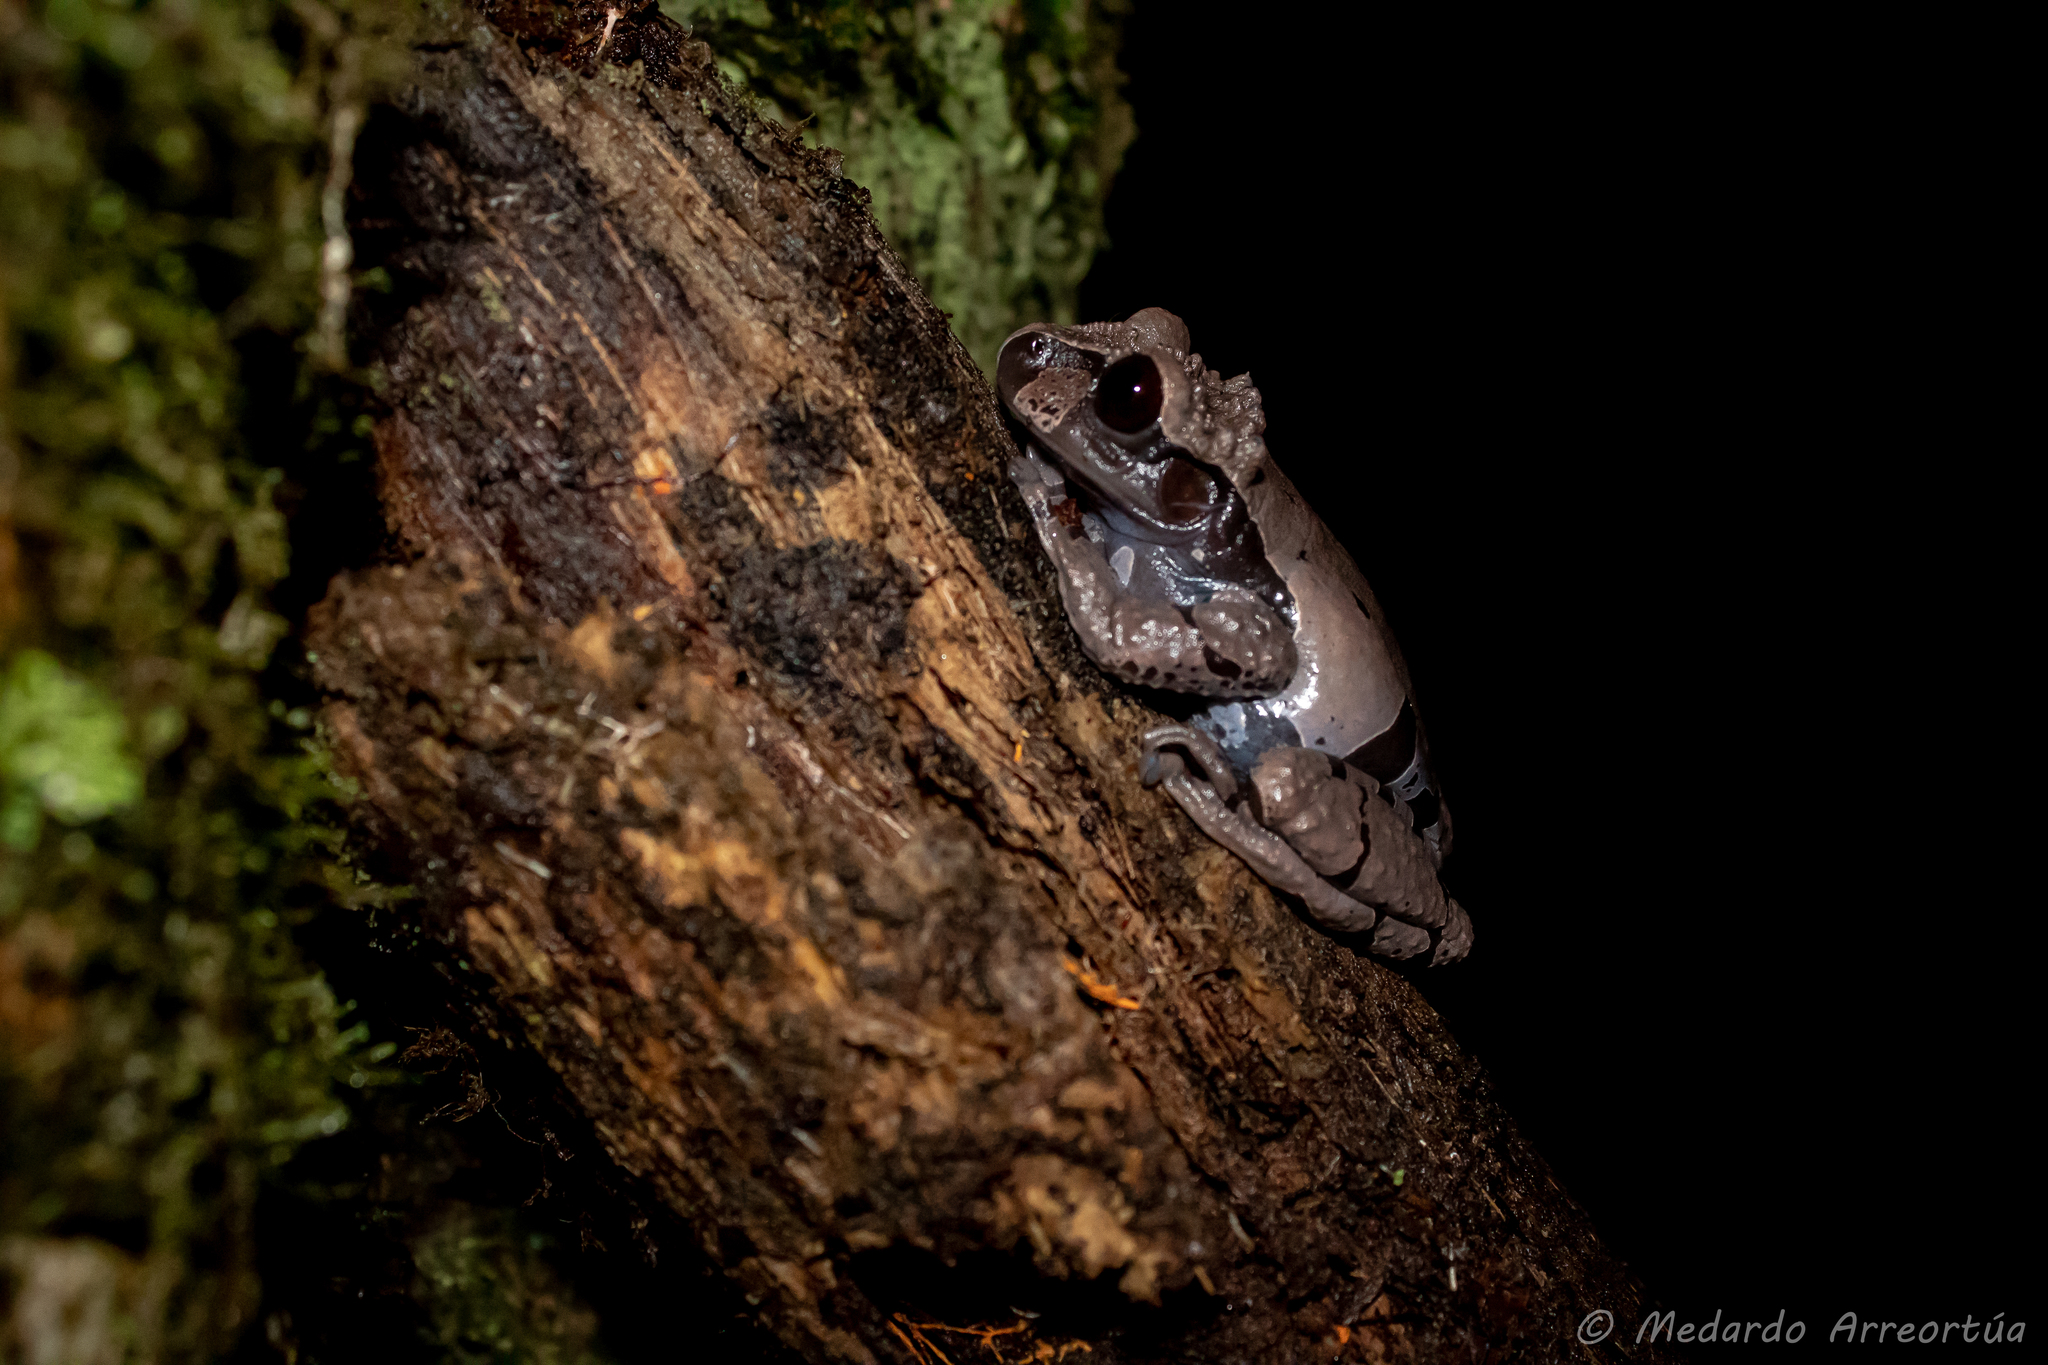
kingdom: Animalia
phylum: Chordata
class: Amphibia
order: Anura
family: Hylidae
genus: Triprion
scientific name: Triprion spinosus
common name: Coronated treefrog
